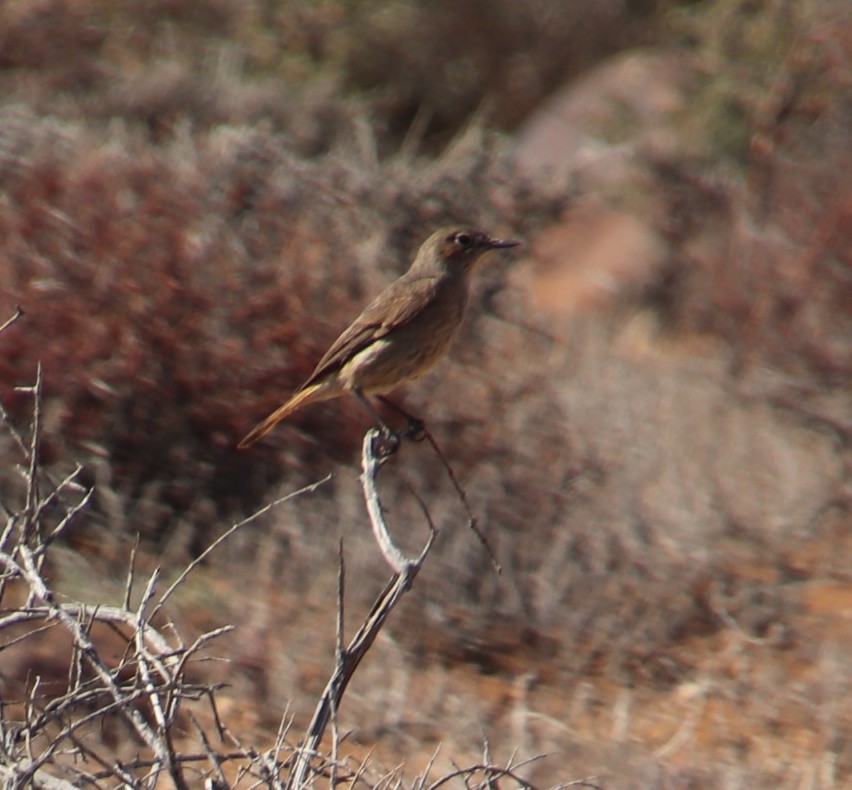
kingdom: Animalia
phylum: Chordata
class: Aves
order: Passeriformes
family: Muscicapidae
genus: Oenanthe
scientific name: Oenanthe familiaris
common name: Familiar chat
